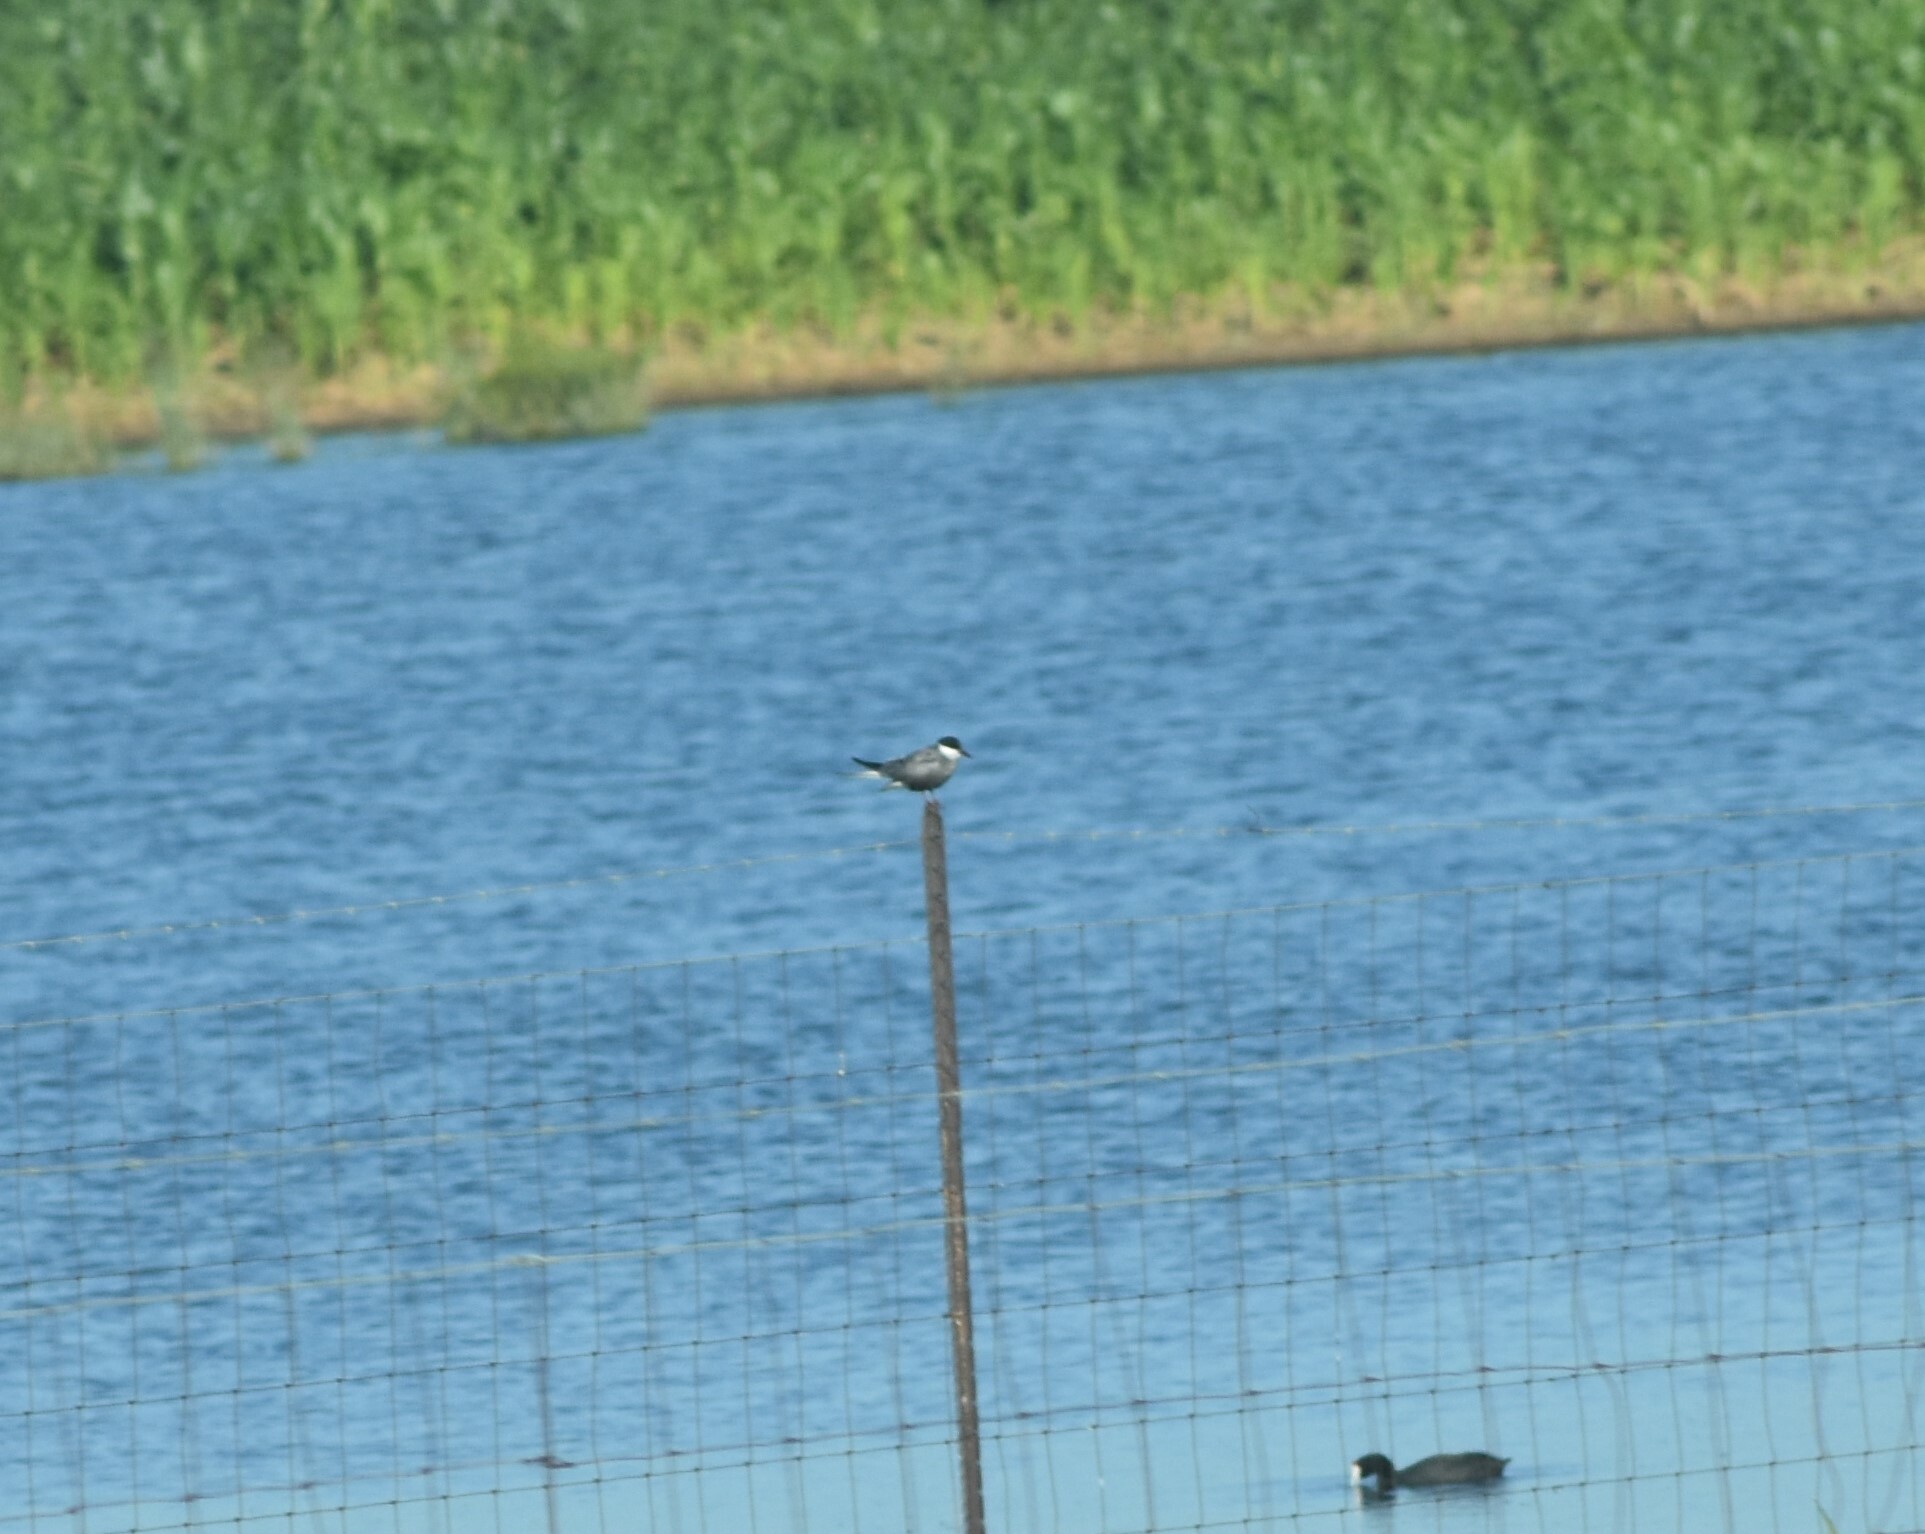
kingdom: Animalia
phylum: Chordata
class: Aves
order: Charadriiformes
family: Laridae
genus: Chlidonias
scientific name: Chlidonias hybrida
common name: Whiskered tern
